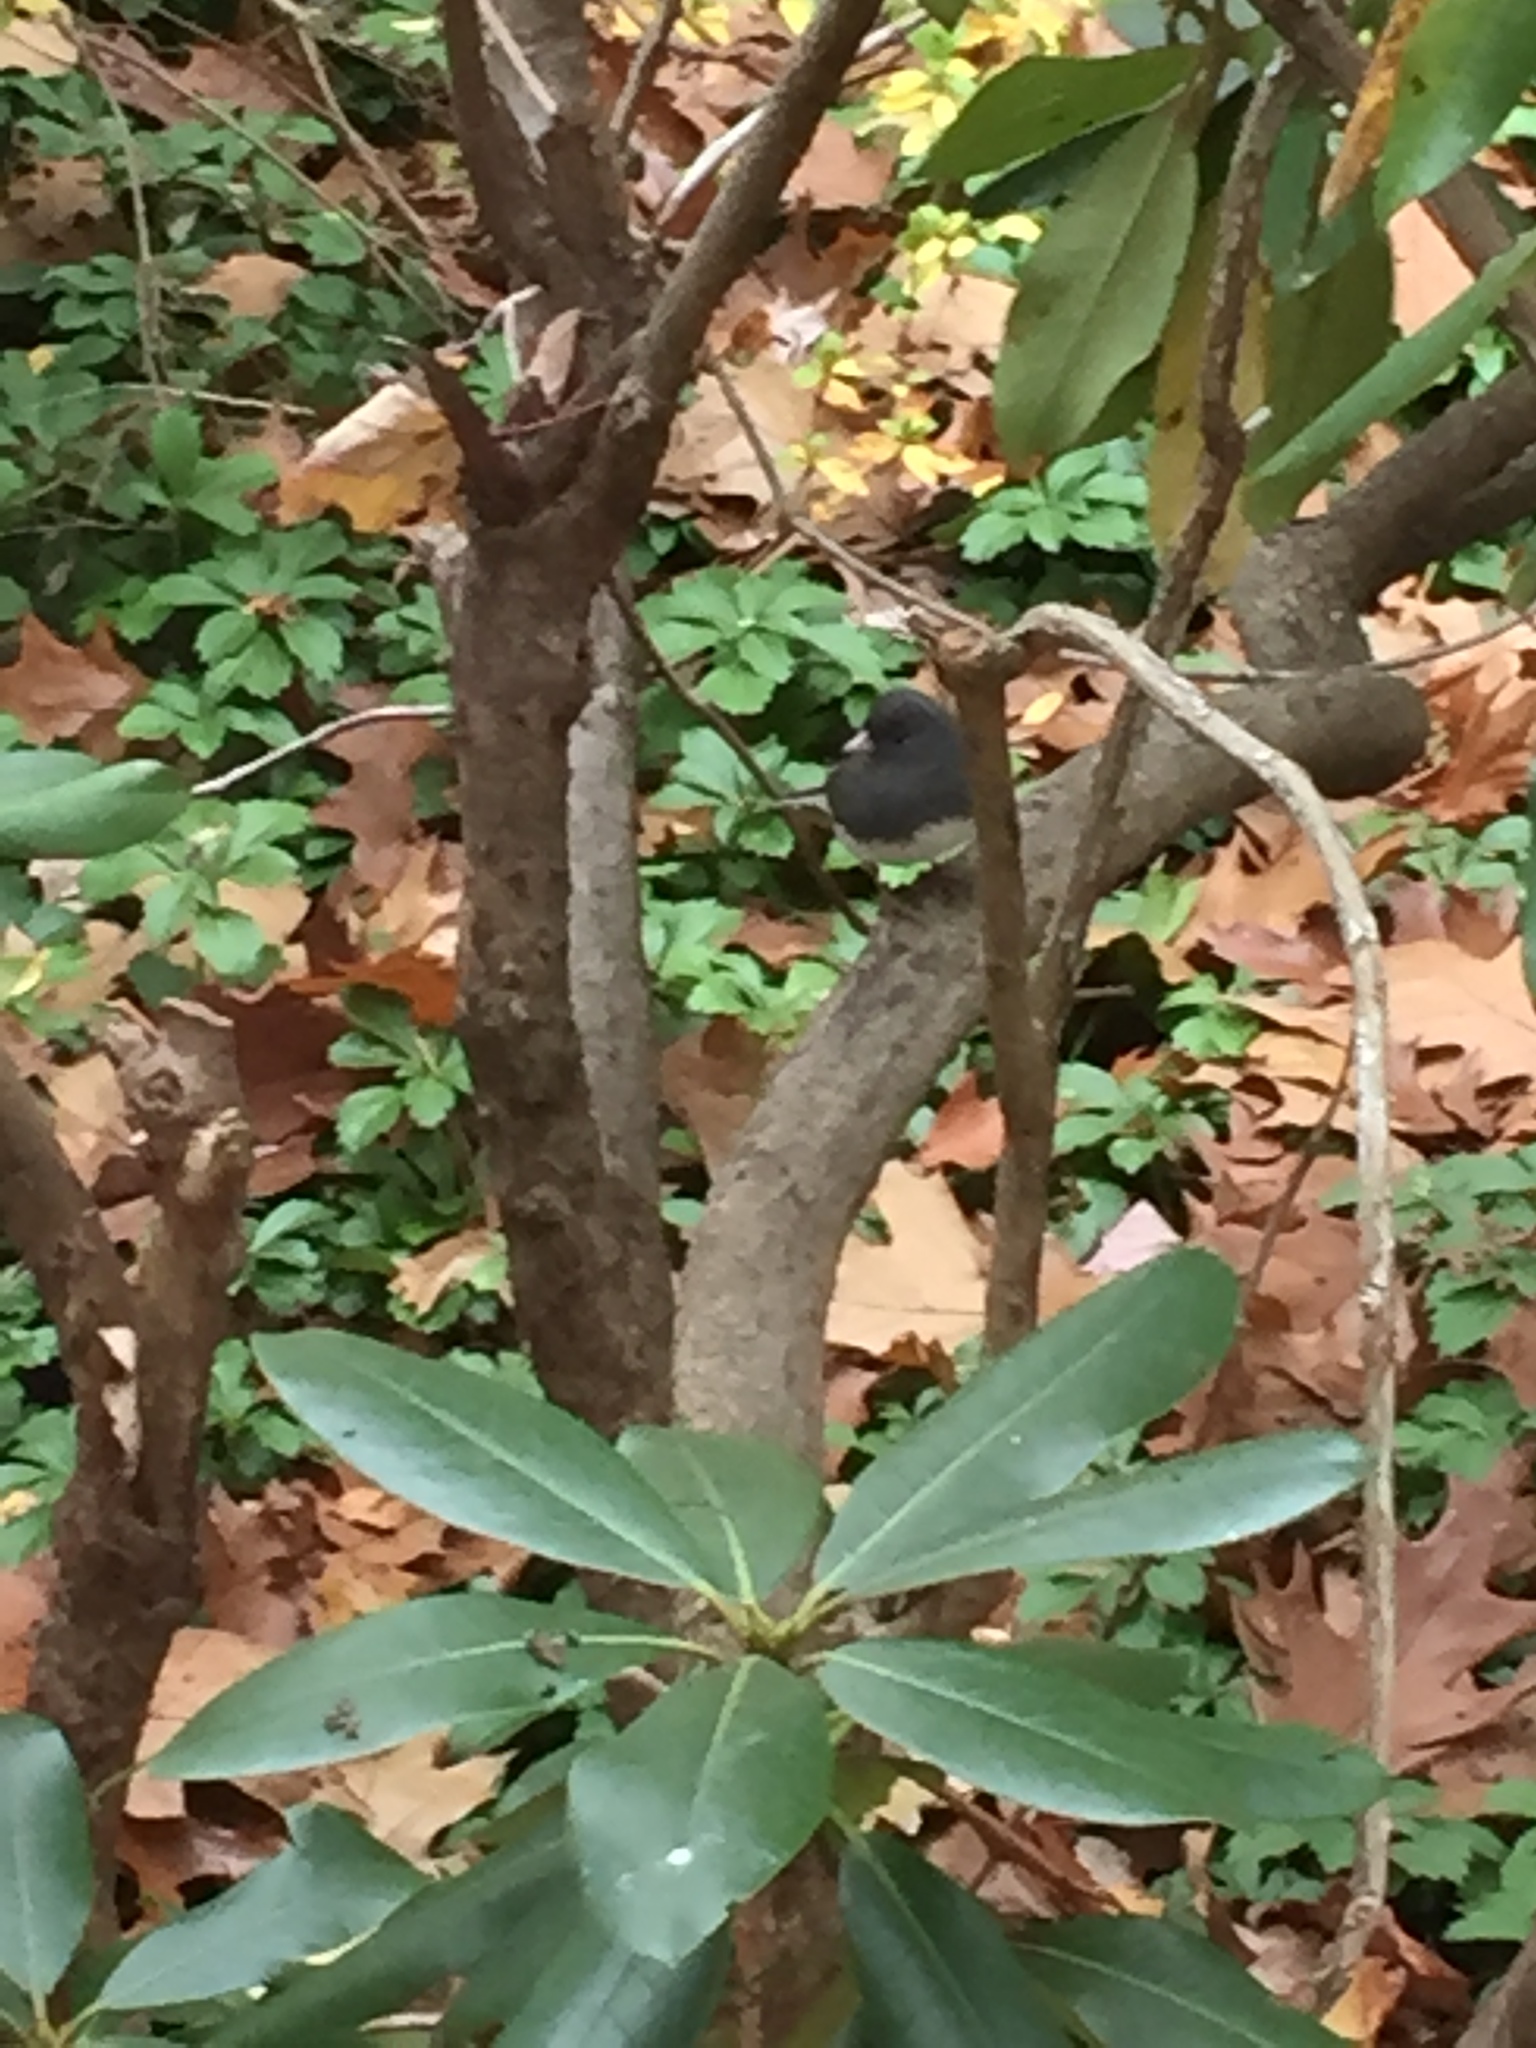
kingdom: Animalia
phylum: Chordata
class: Aves
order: Passeriformes
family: Passerellidae
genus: Junco
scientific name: Junco hyemalis
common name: Dark-eyed junco
